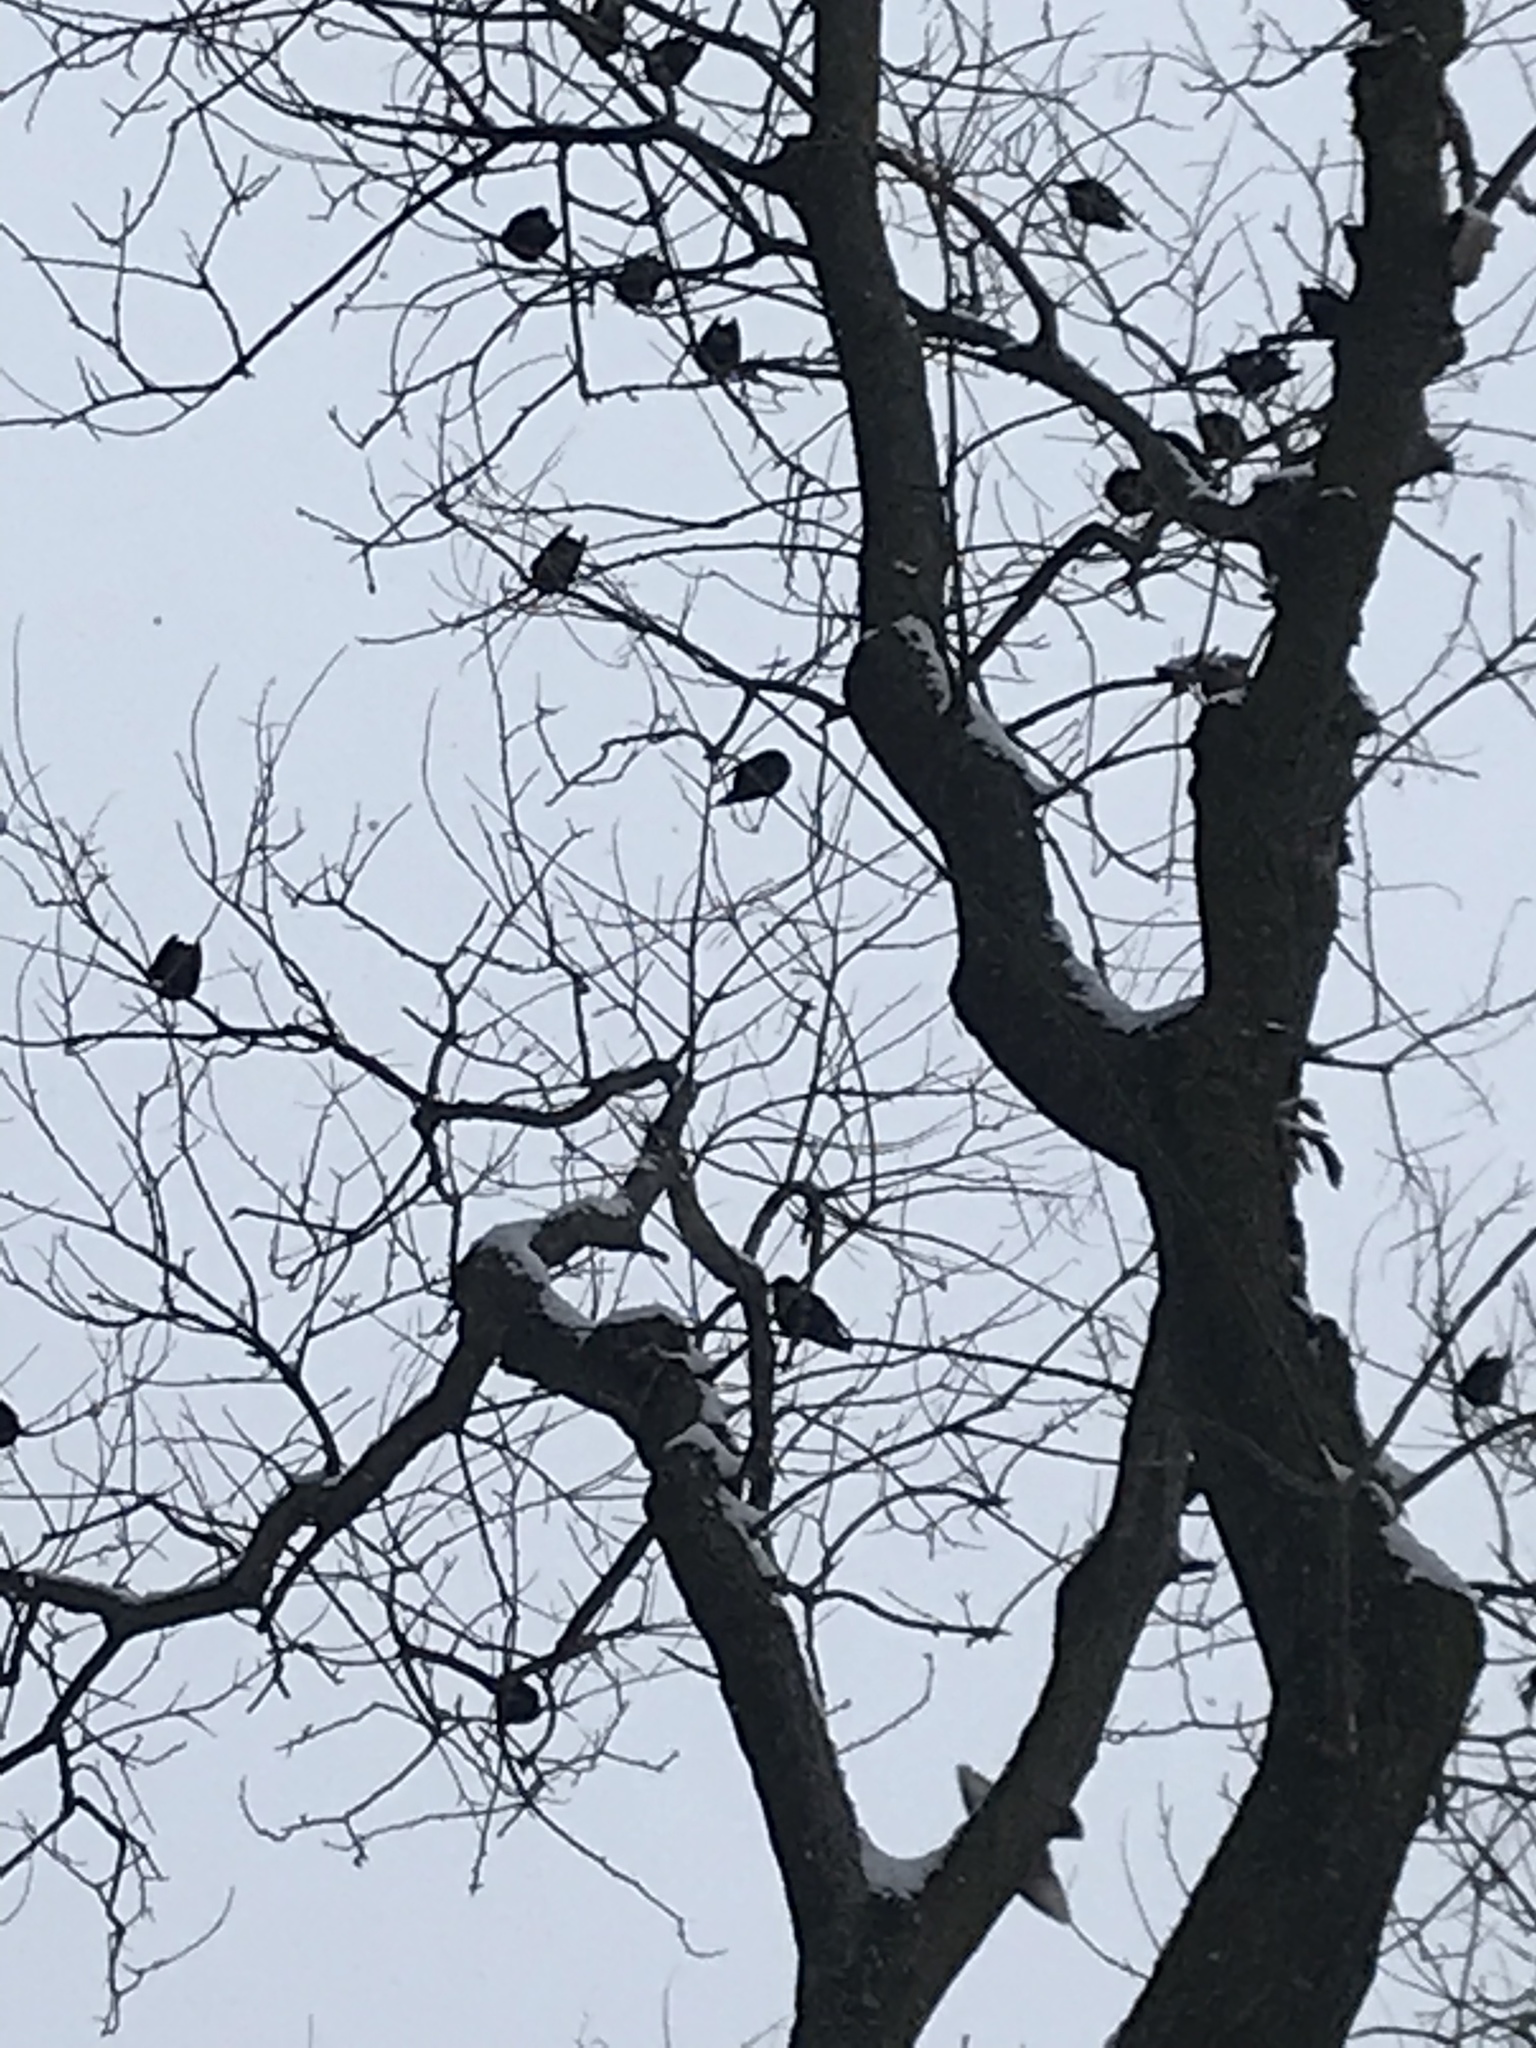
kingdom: Animalia
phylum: Chordata
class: Aves
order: Passeriformes
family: Sturnidae
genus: Sturnus
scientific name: Sturnus vulgaris
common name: Common starling
